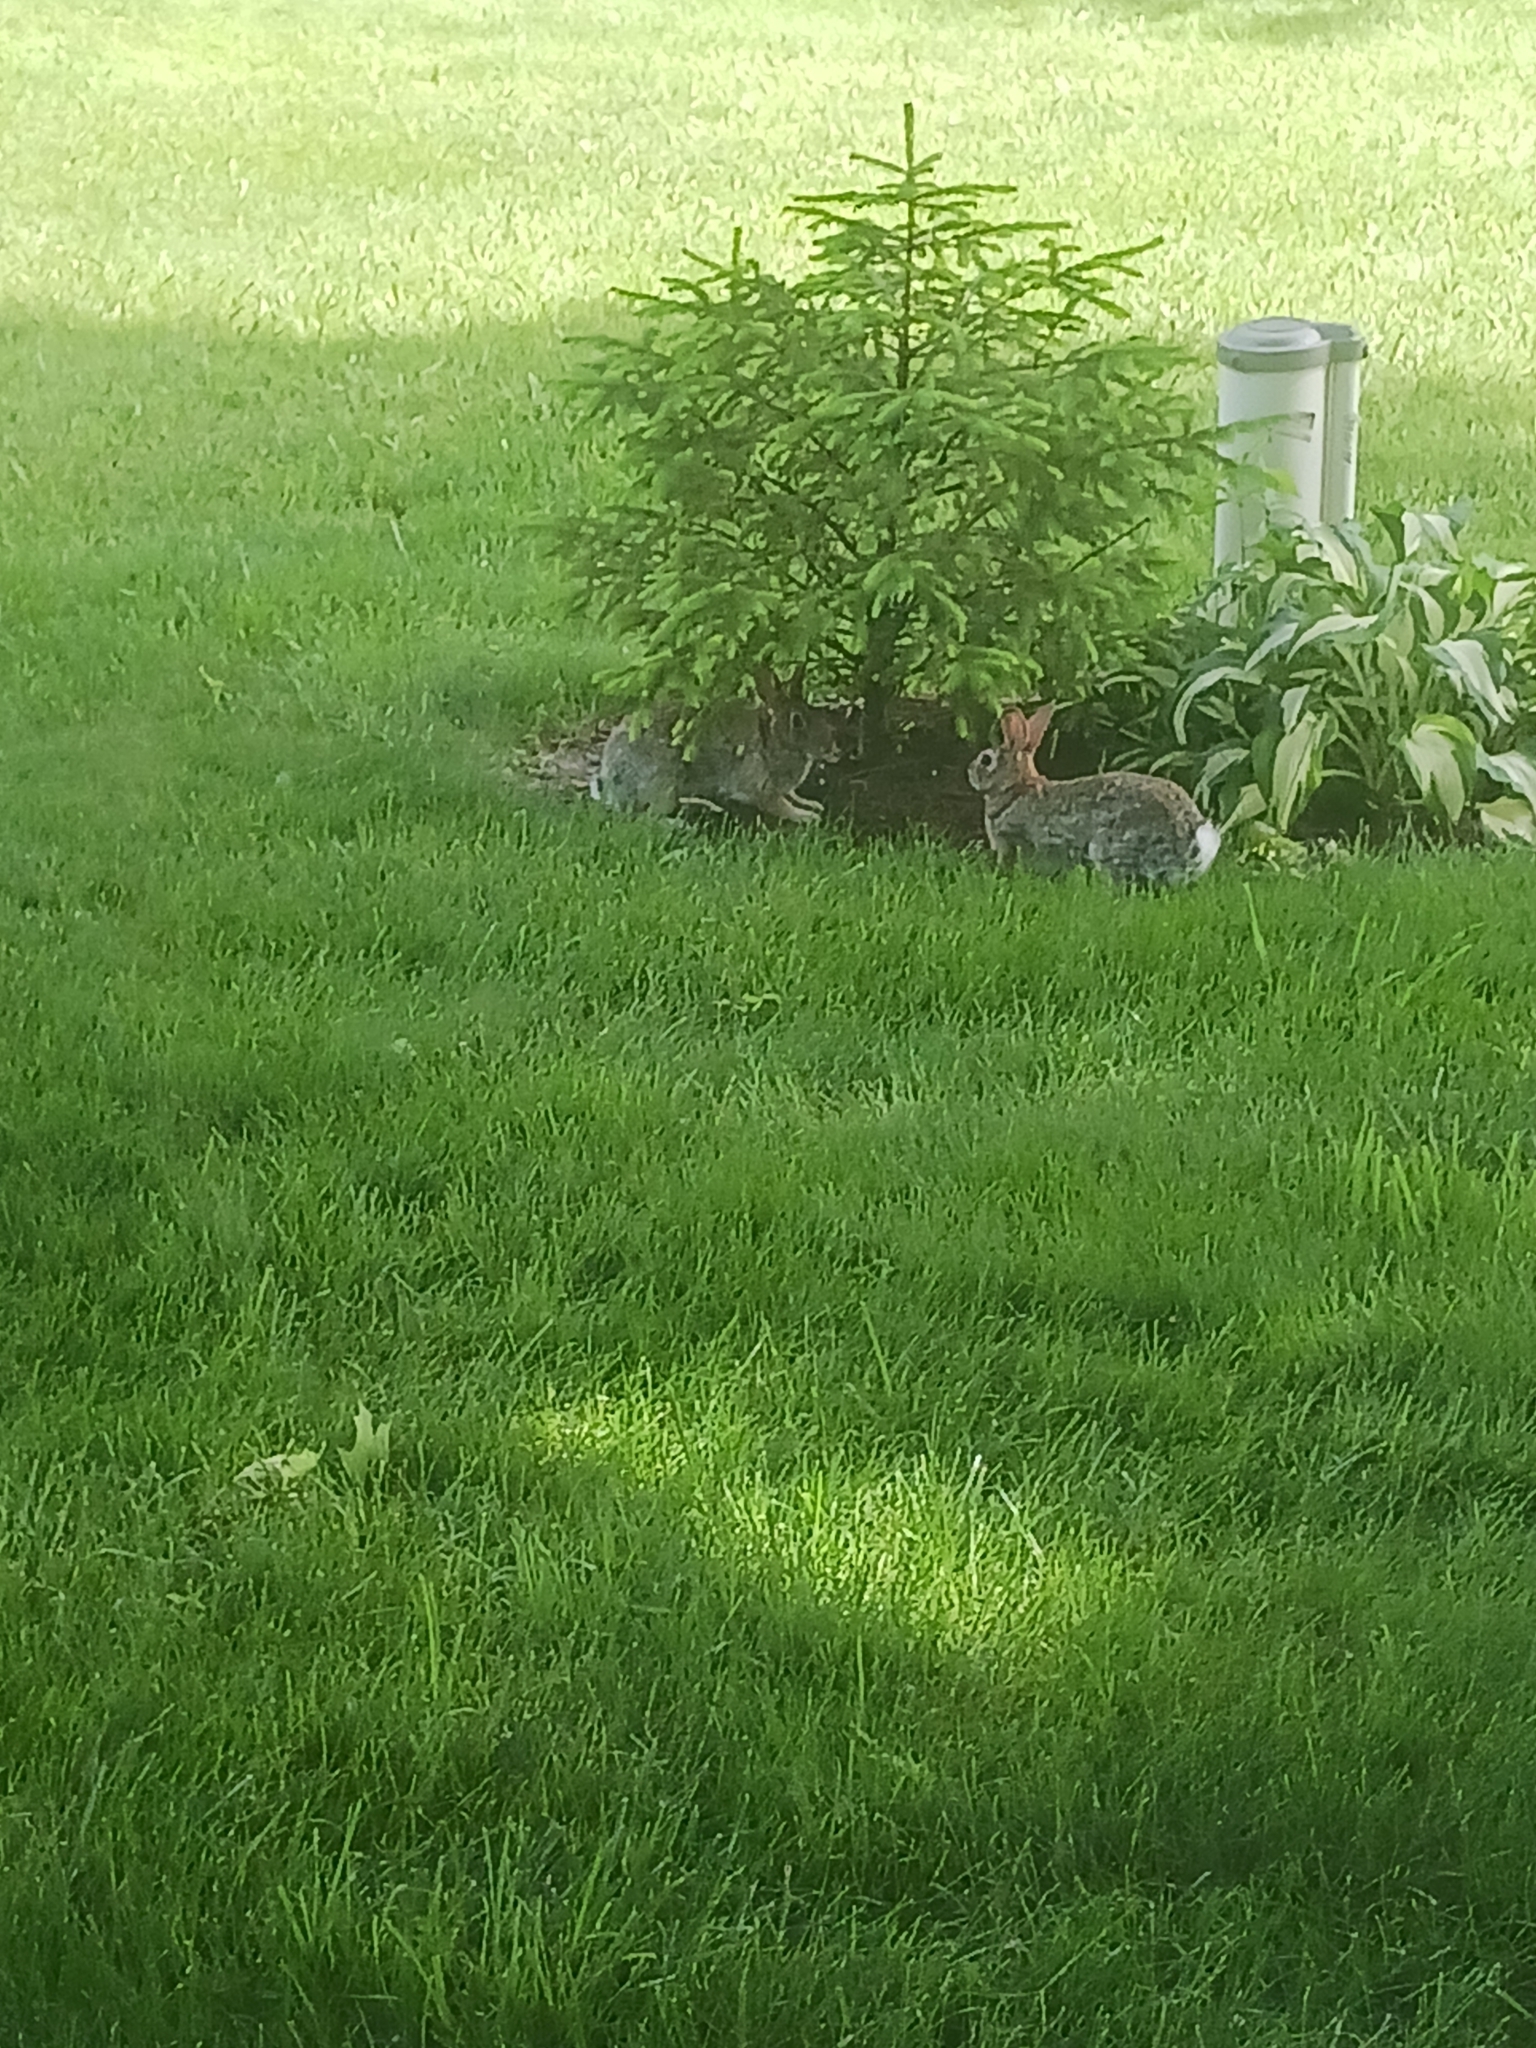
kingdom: Animalia
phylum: Chordata
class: Mammalia
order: Lagomorpha
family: Leporidae
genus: Sylvilagus
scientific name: Sylvilagus floridanus
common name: Eastern cottontail
